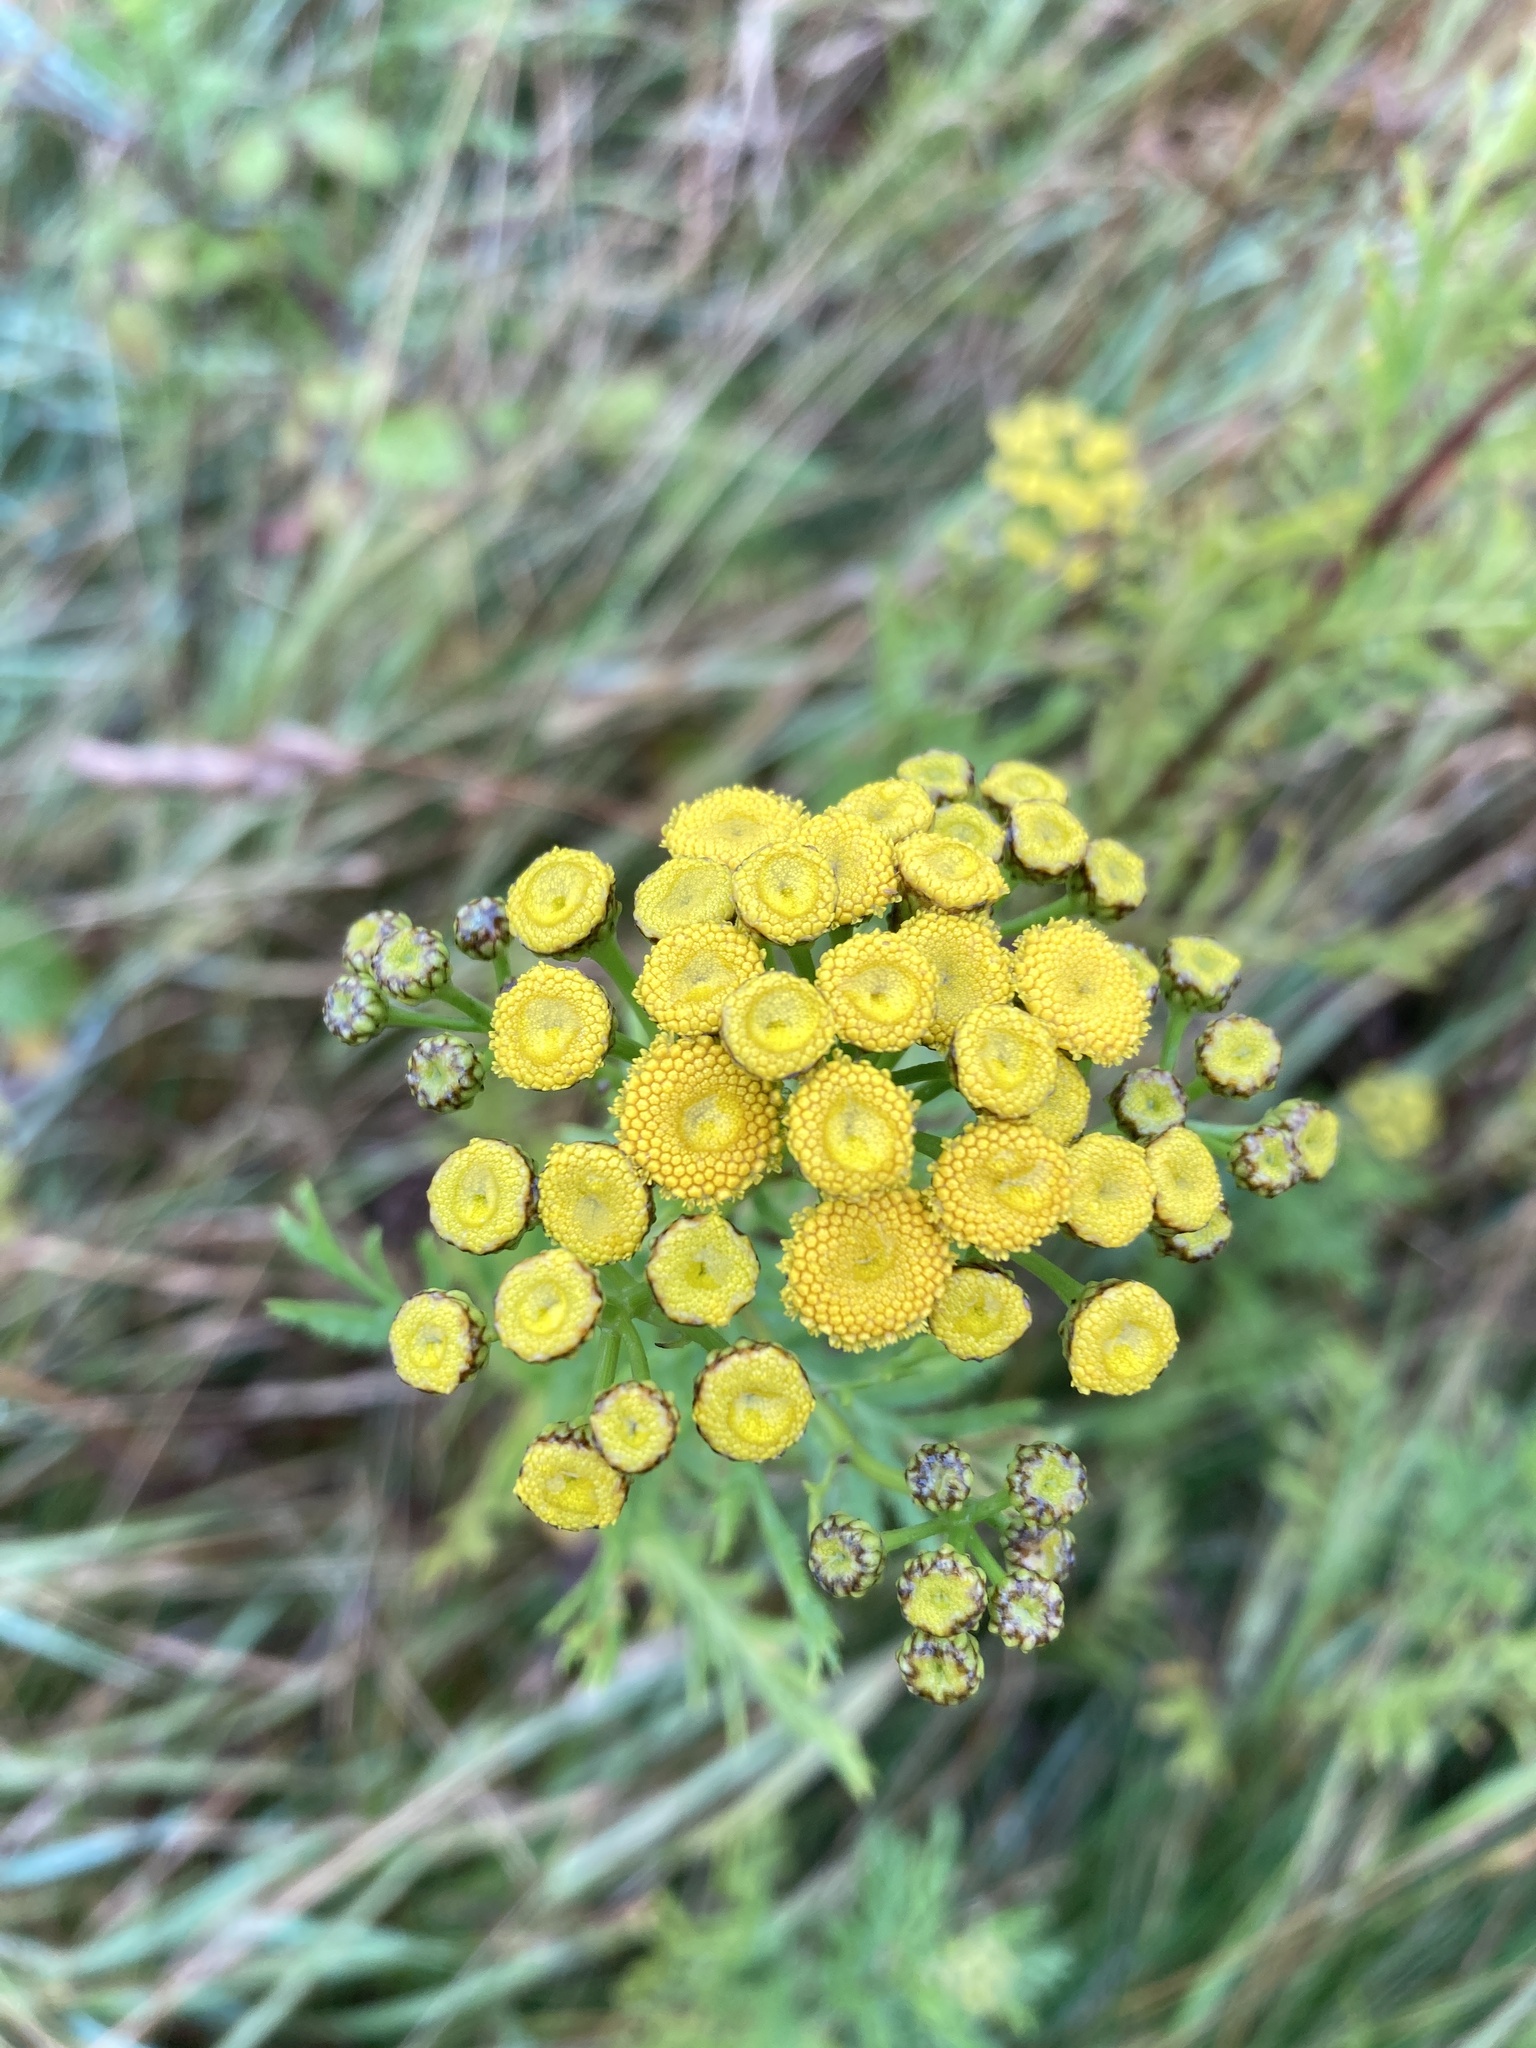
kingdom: Plantae
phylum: Tracheophyta
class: Magnoliopsida
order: Asterales
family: Asteraceae
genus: Tanacetum
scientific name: Tanacetum vulgare
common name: Common tansy
